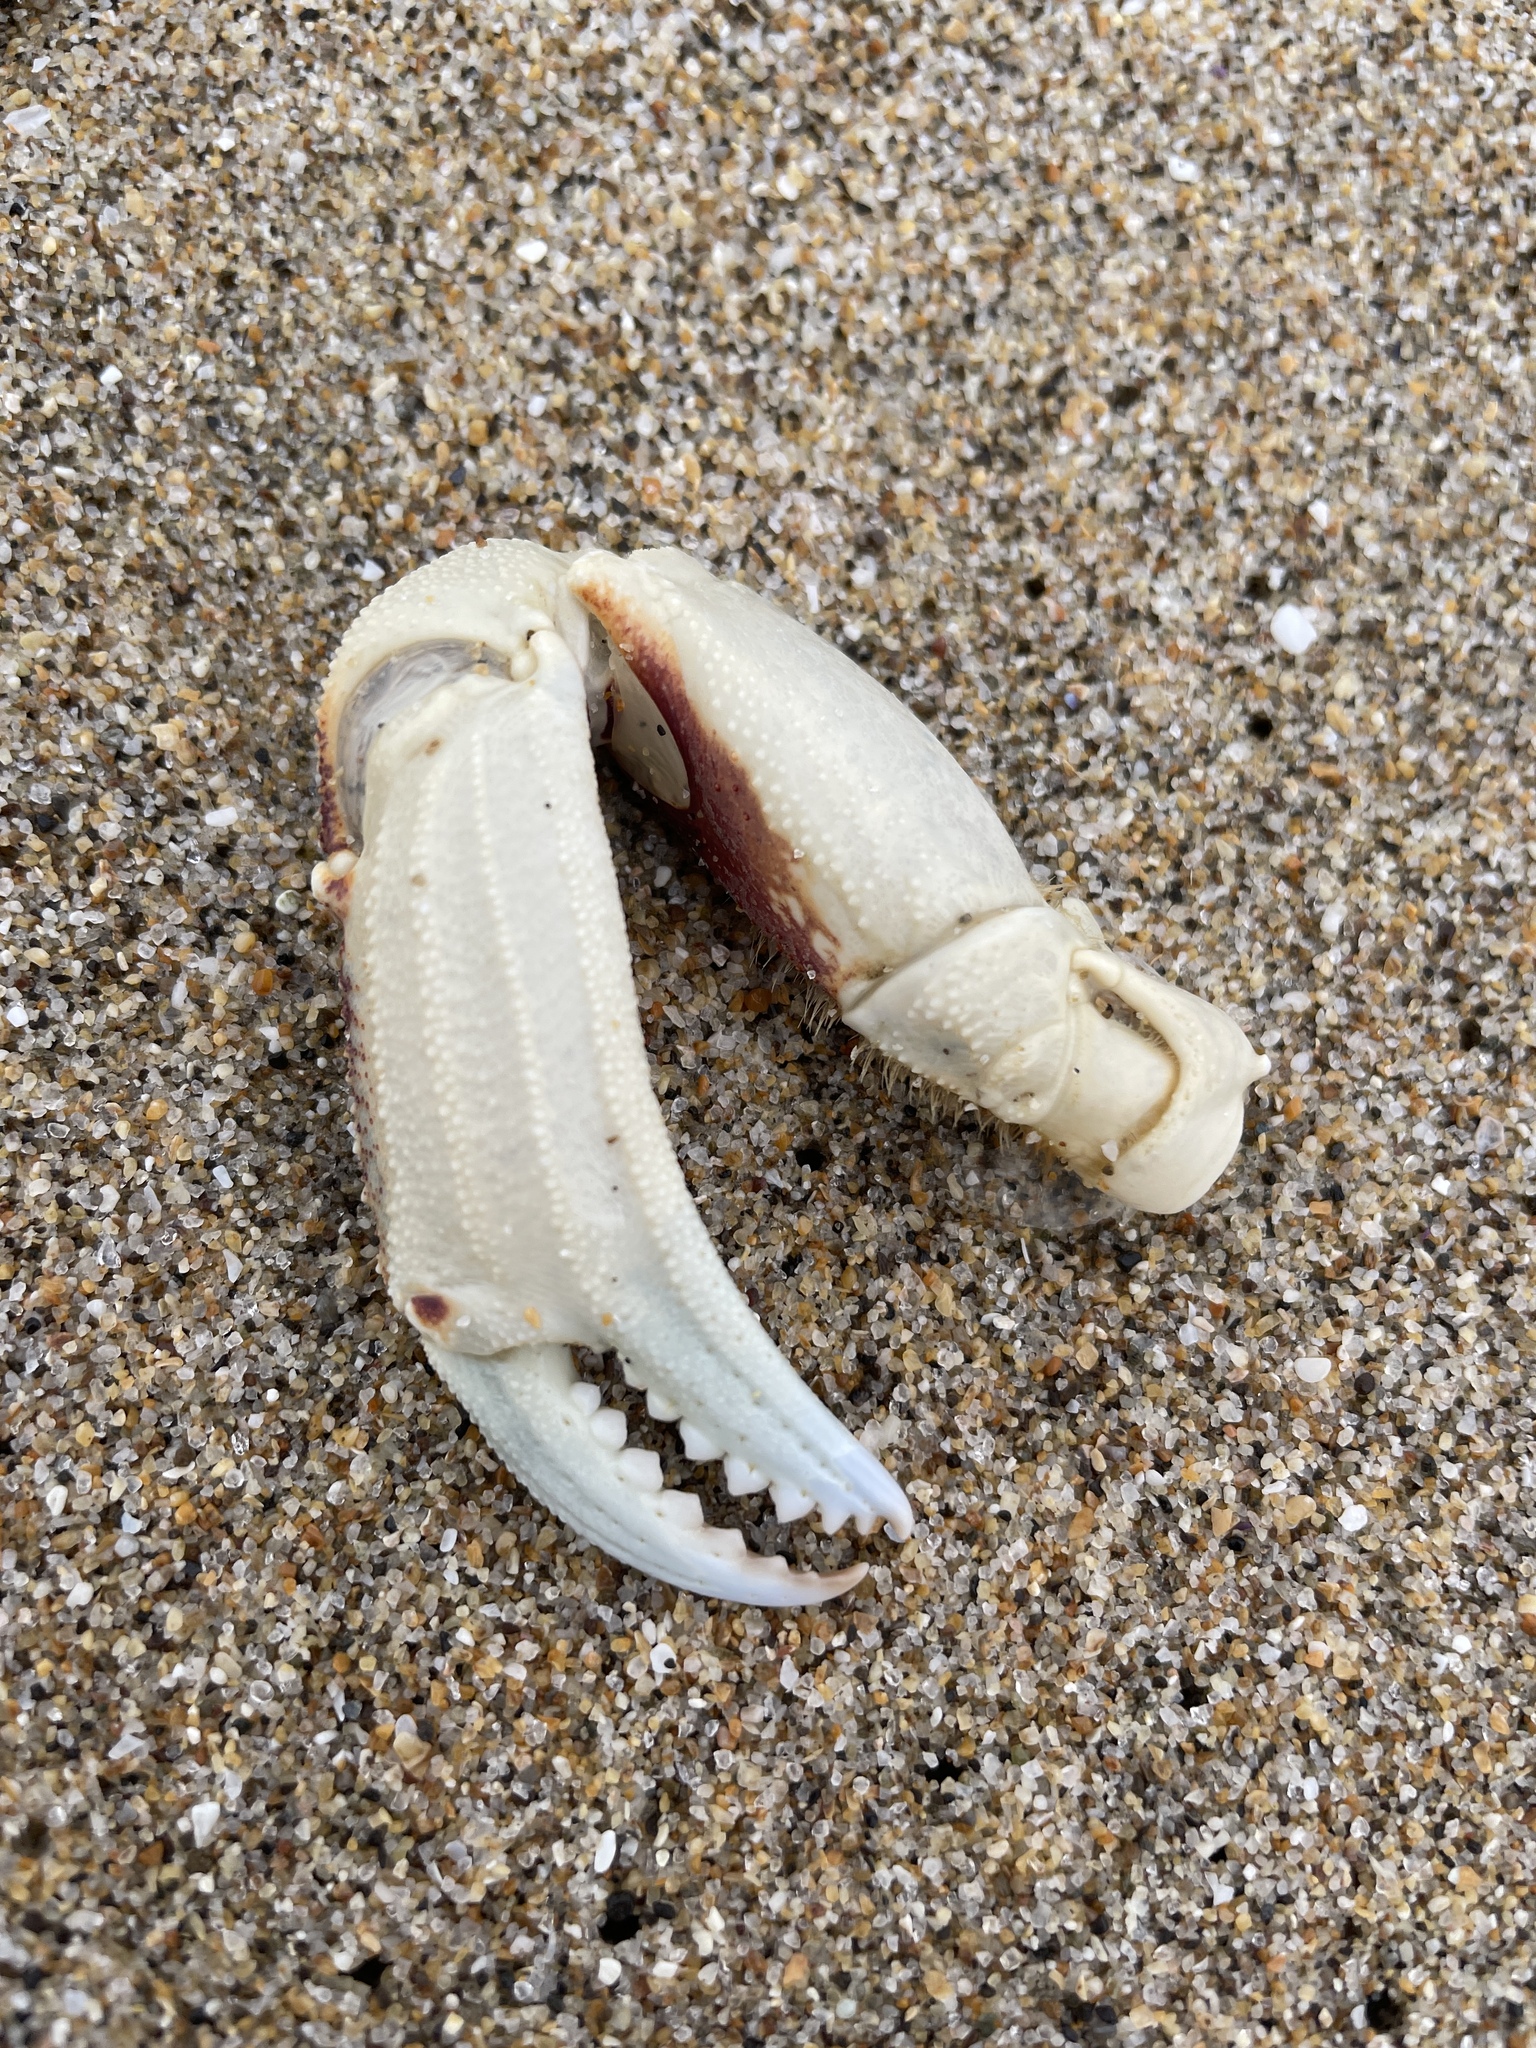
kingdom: Animalia
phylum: Arthropoda
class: Malacostraca
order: Decapoda
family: Cancridae
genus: Metacarcinus
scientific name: Metacarcinus magister
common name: Californian crab
